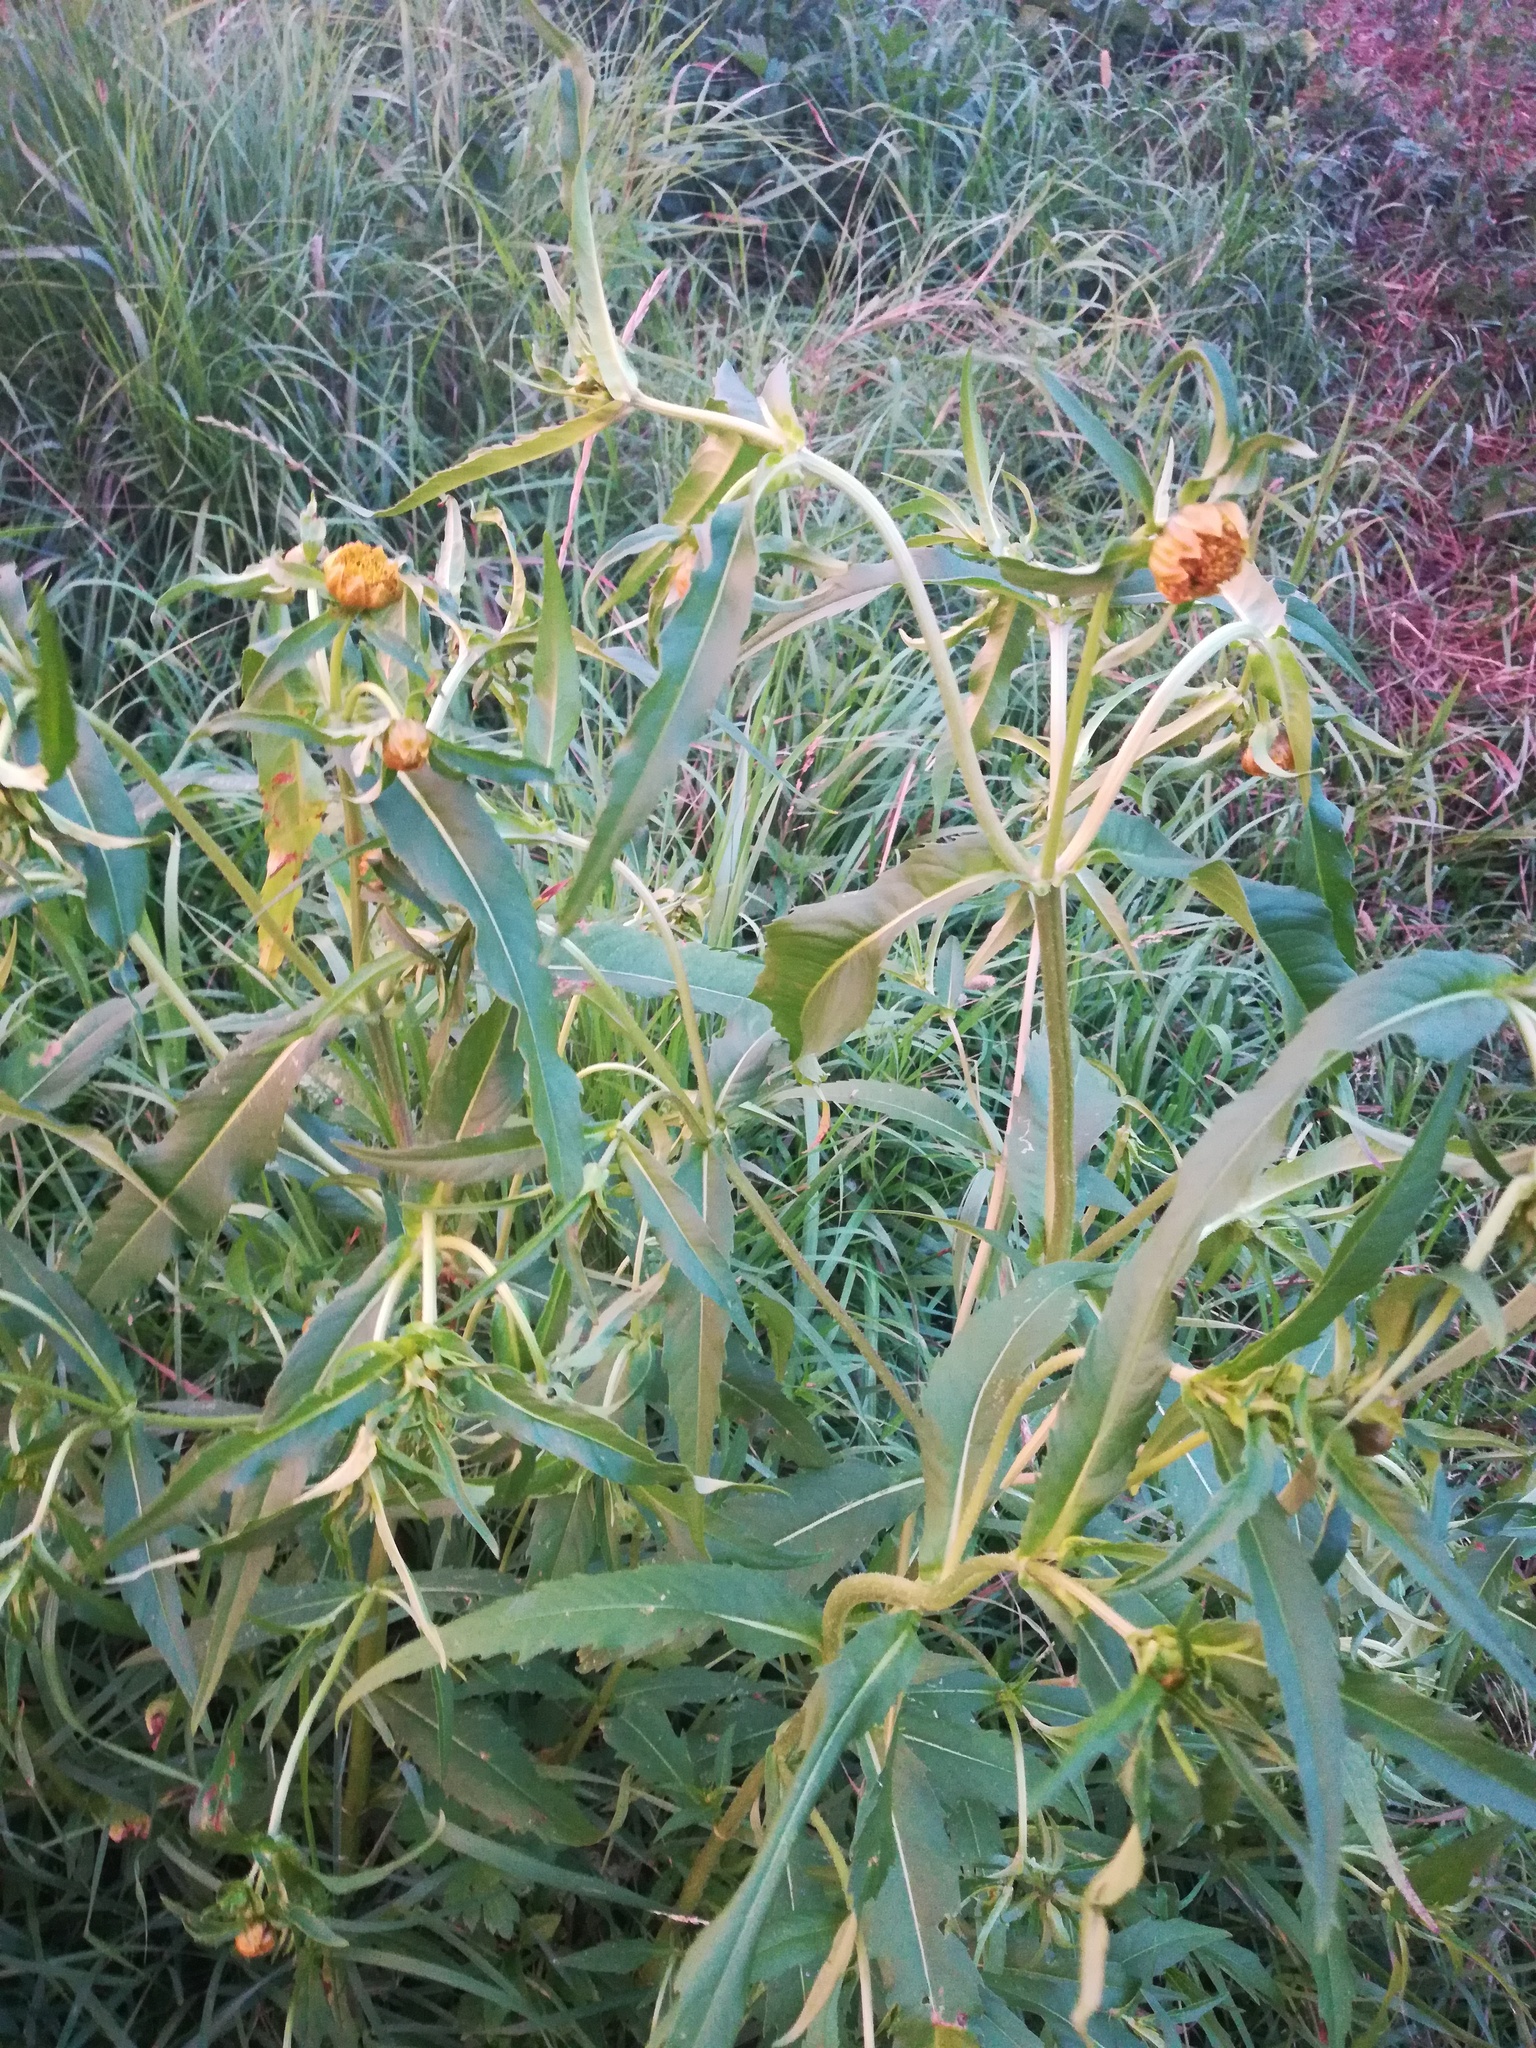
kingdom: Plantae
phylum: Tracheophyta
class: Magnoliopsida
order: Asterales
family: Asteraceae
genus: Bidens
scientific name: Bidens cernua
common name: Nodding bur-marigold
